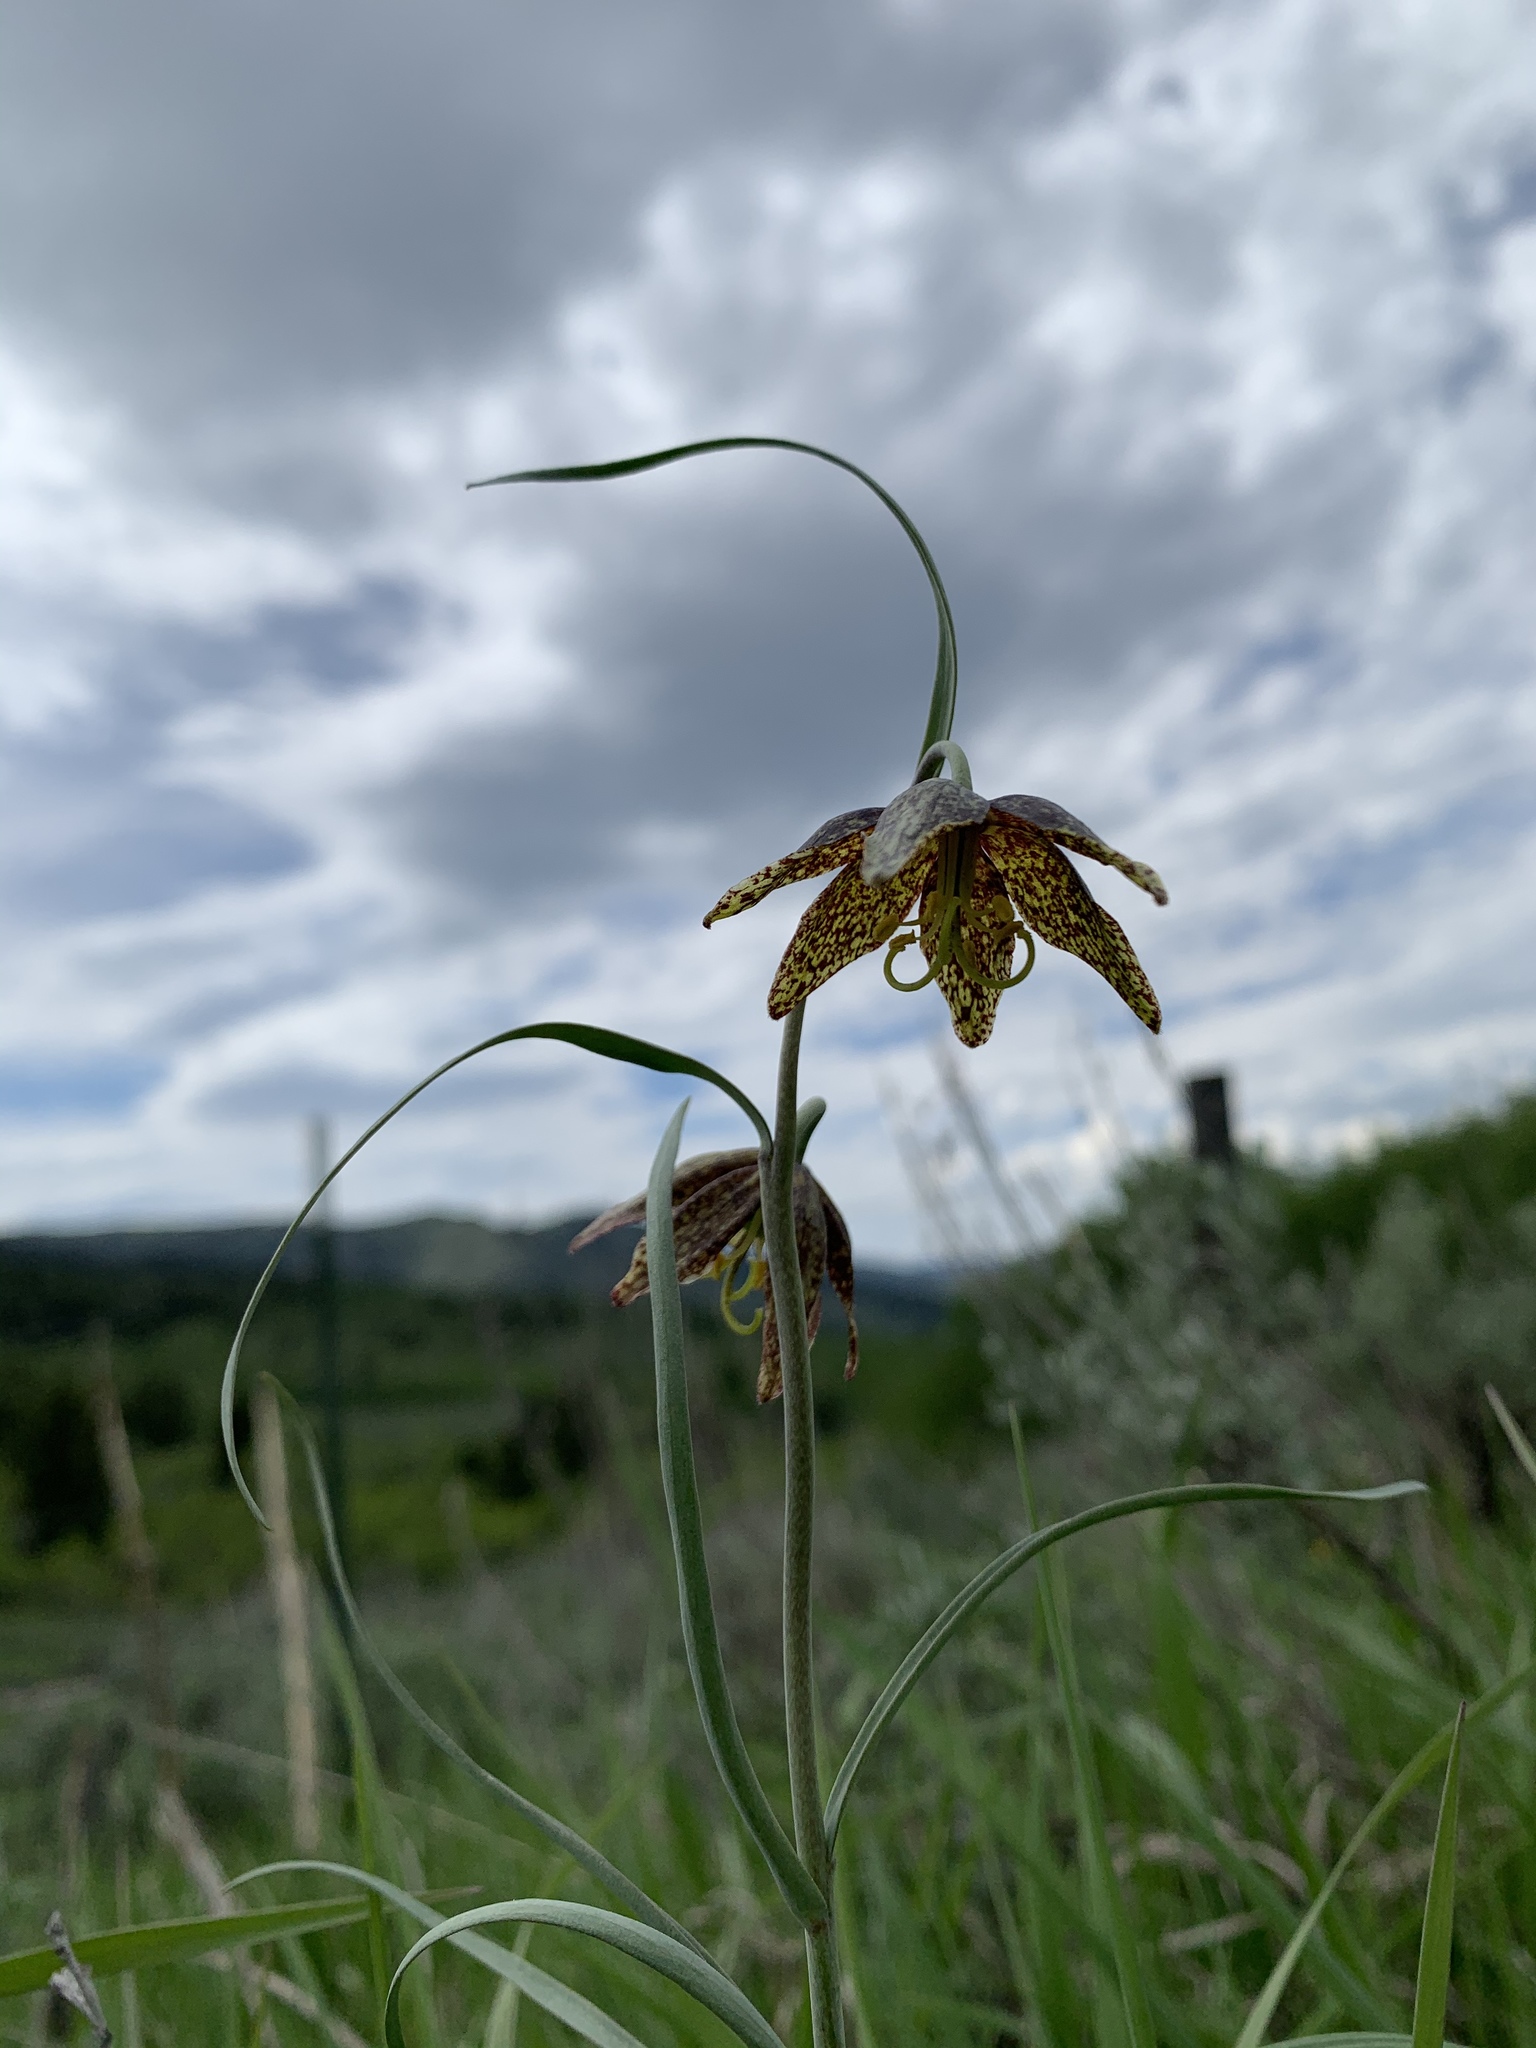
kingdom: Plantae
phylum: Tracheophyta
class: Liliopsida
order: Liliales
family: Liliaceae
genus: Fritillaria
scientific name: Fritillaria atropurpurea
